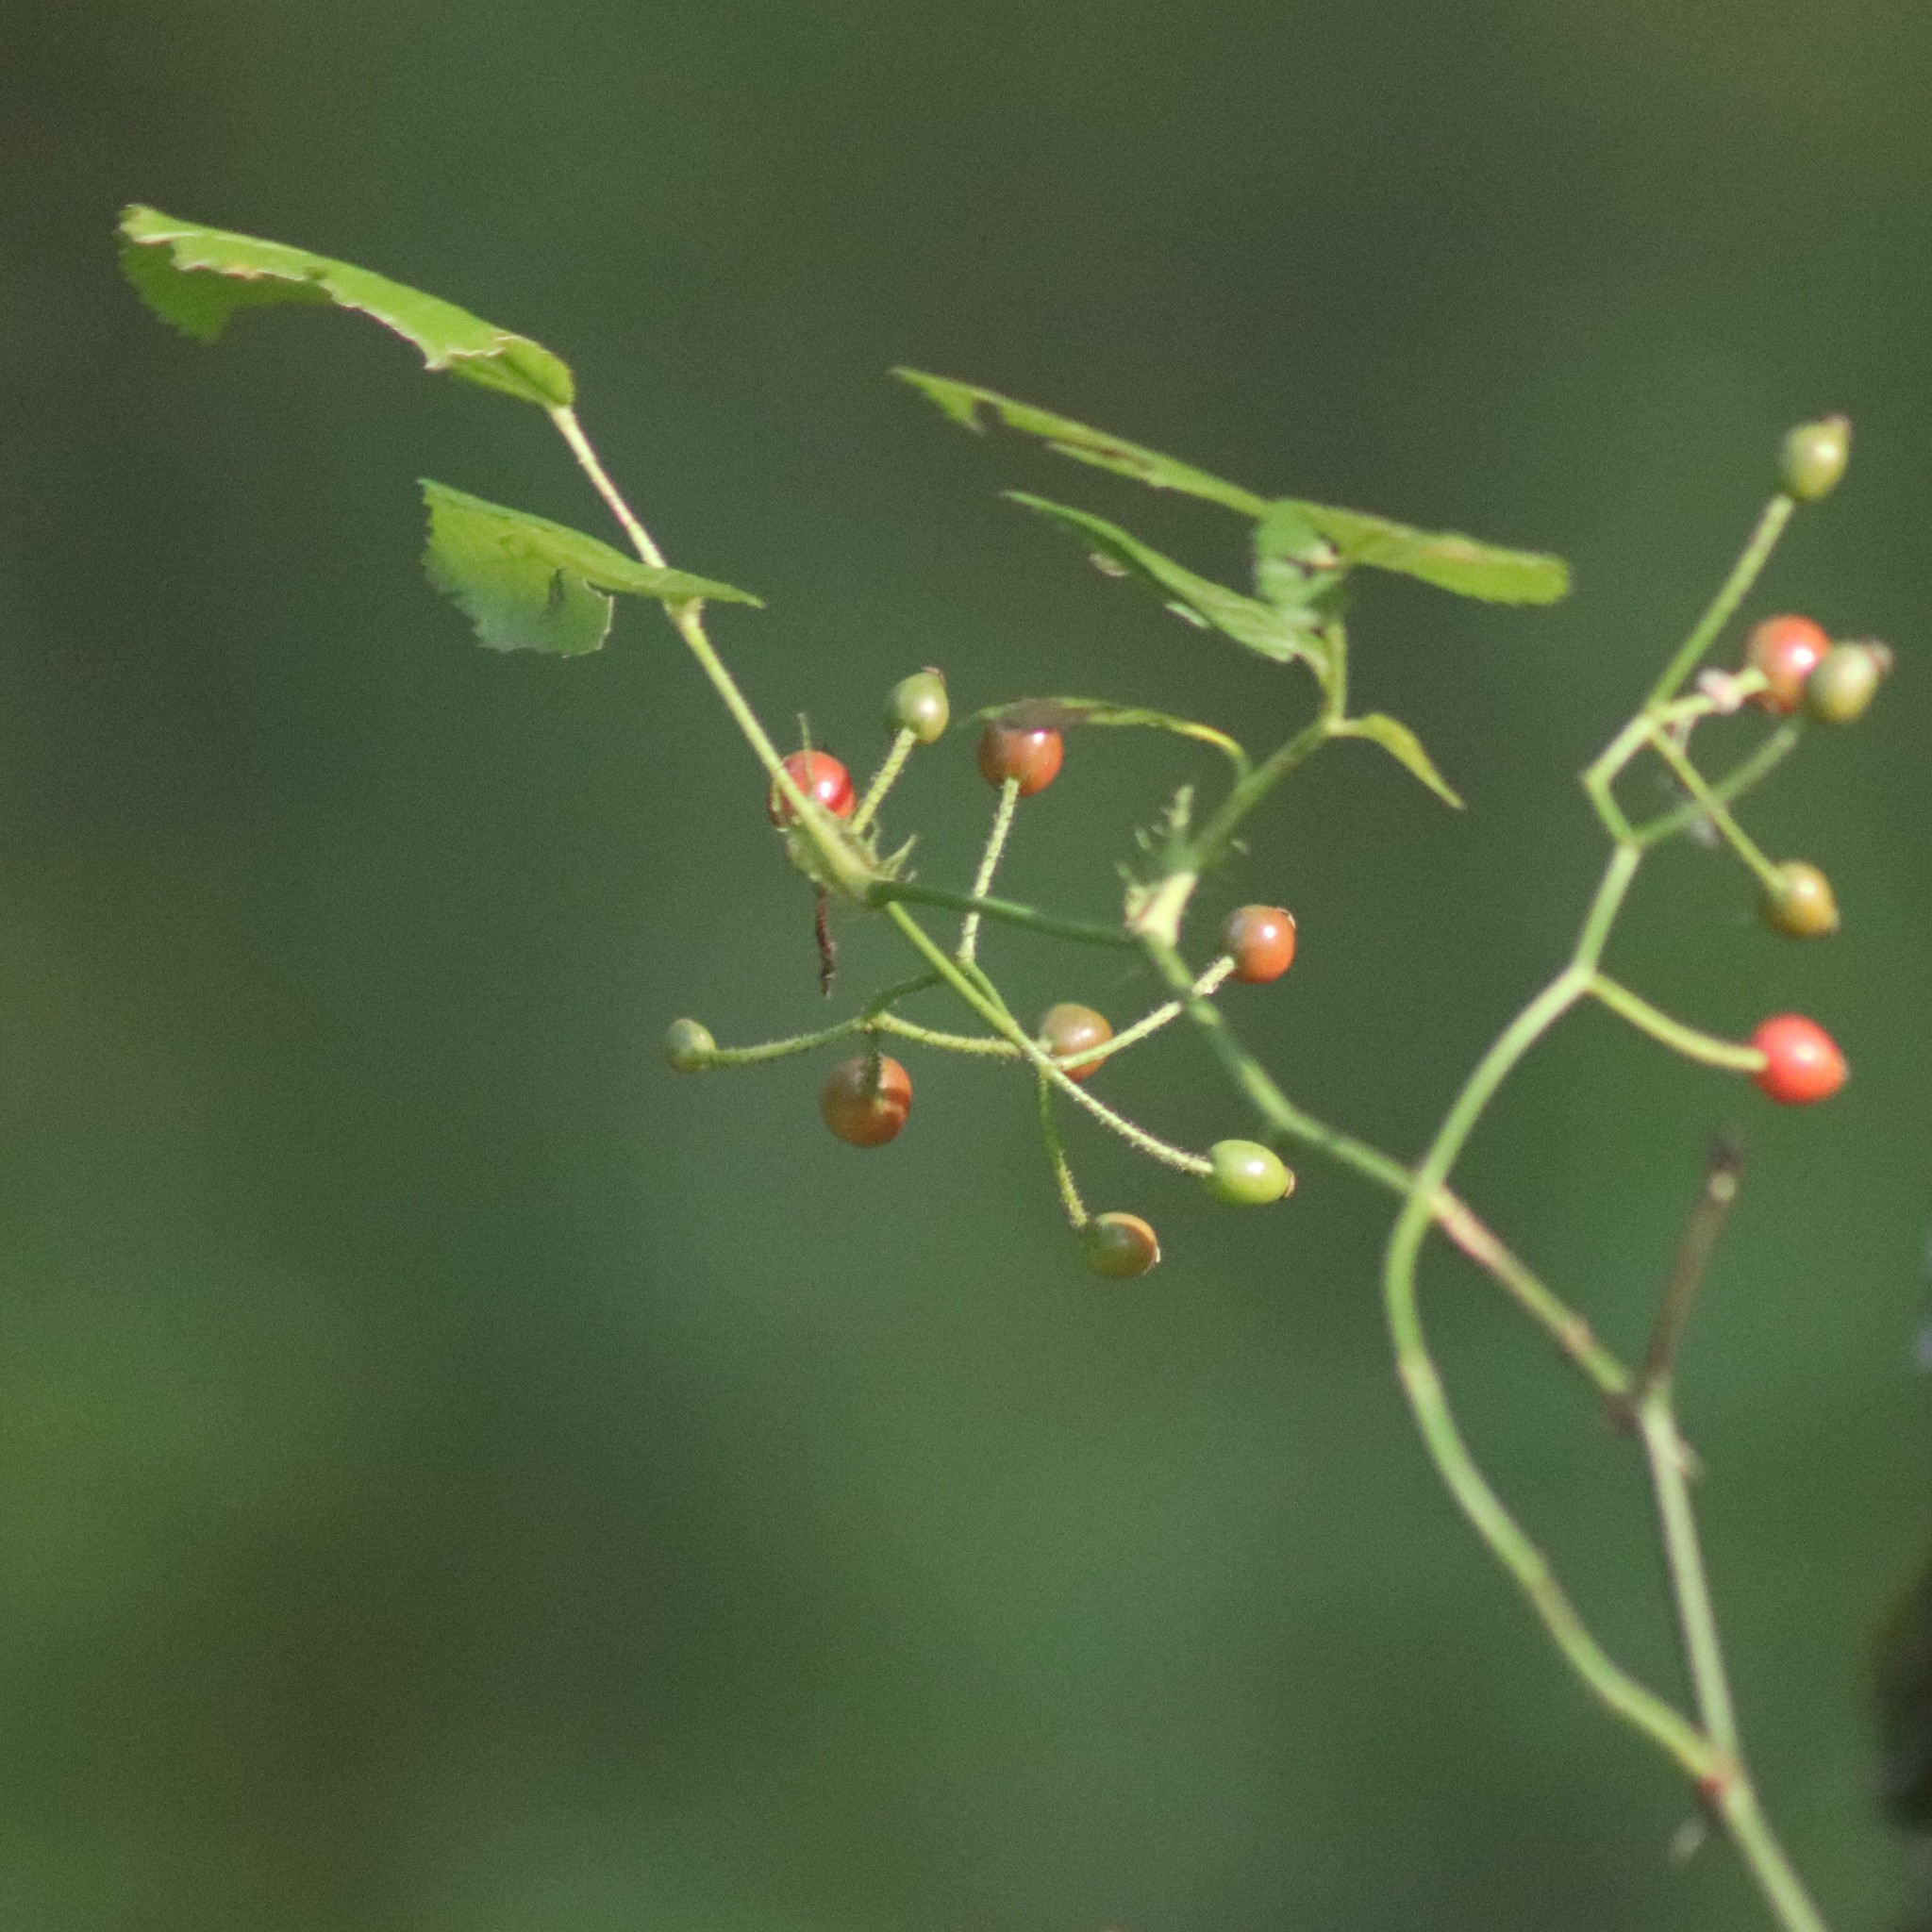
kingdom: Plantae
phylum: Tracheophyta
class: Magnoliopsida
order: Rosales
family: Rosaceae
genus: Rosa
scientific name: Rosa multiflora
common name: Multiflora rose
